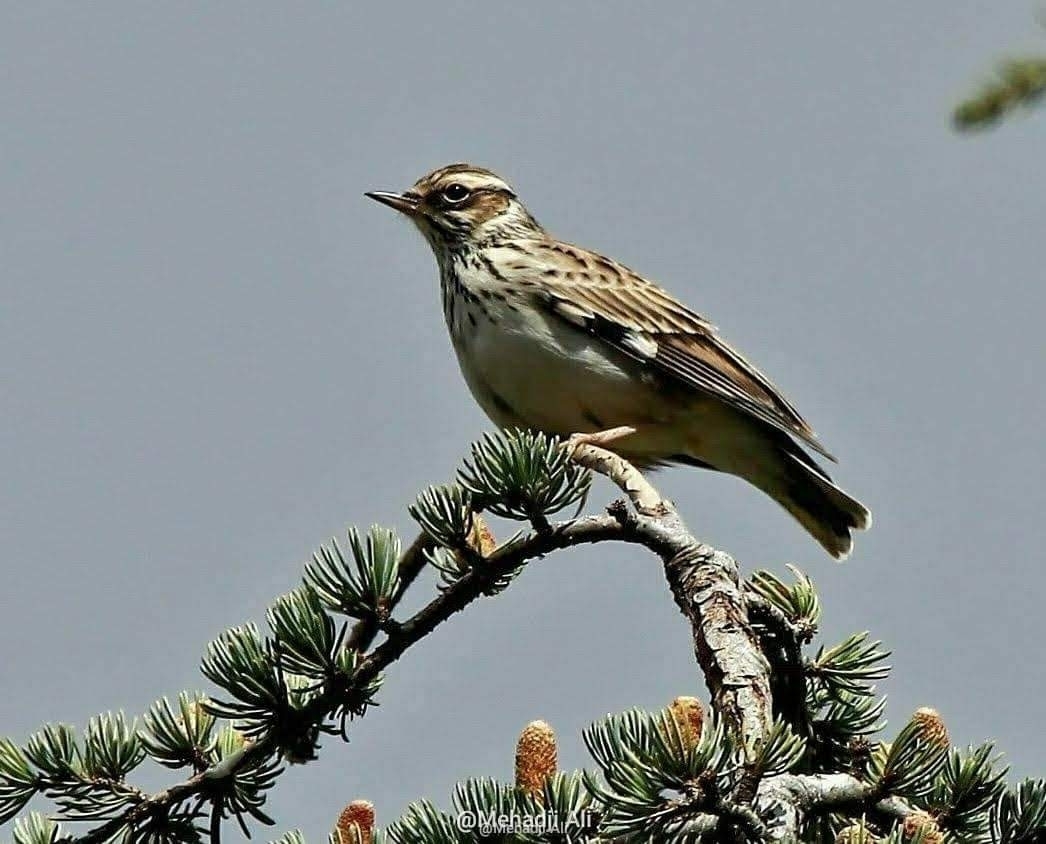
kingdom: Animalia
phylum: Chordata
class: Aves
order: Passeriformes
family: Alaudidae
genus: Lullula
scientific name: Lullula arborea
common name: Woodlark
